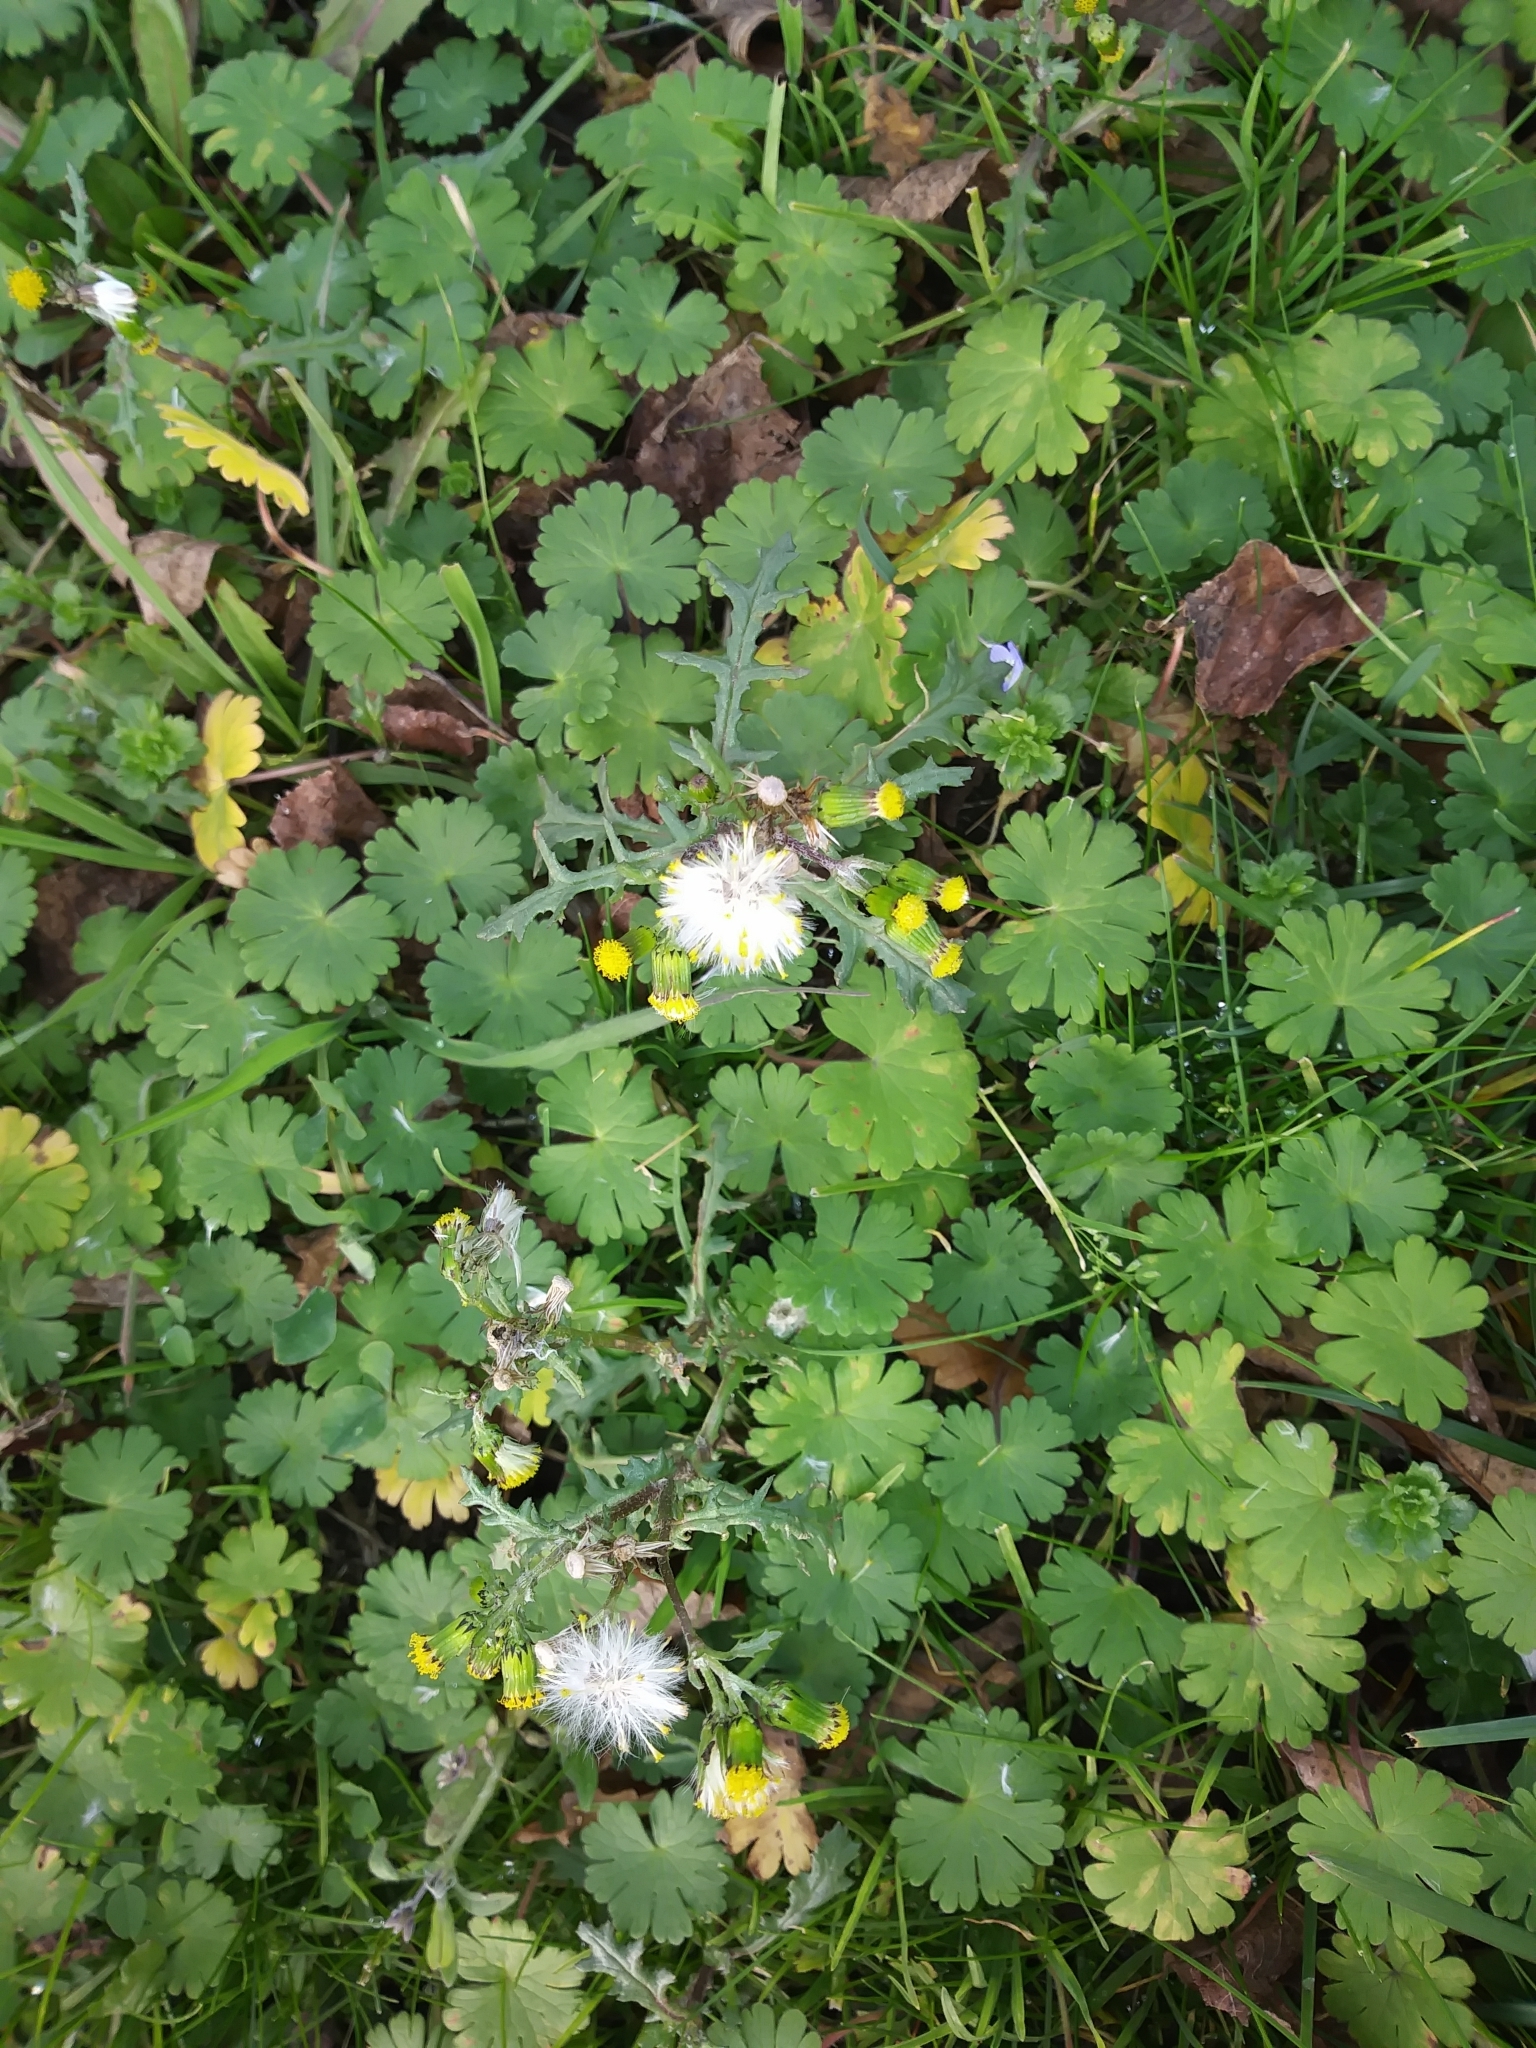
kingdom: Plantae
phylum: Tracheophyta
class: Magnoliopsida
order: Asterales
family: Asteraceae
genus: Senecio
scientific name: Senecio vulgaris
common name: Old-man-in-the-spring
